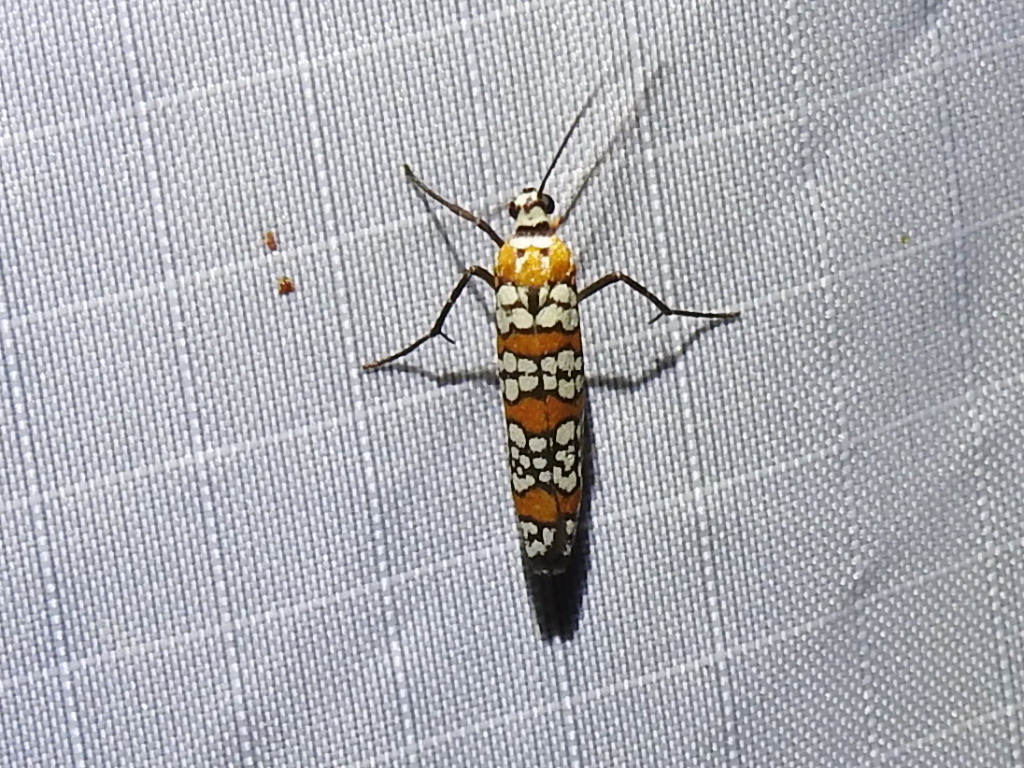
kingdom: Animalia
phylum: Arthropoda
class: Insecta
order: Lepidoptera
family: Attevidae
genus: Atteva
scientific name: Atteva punctella
